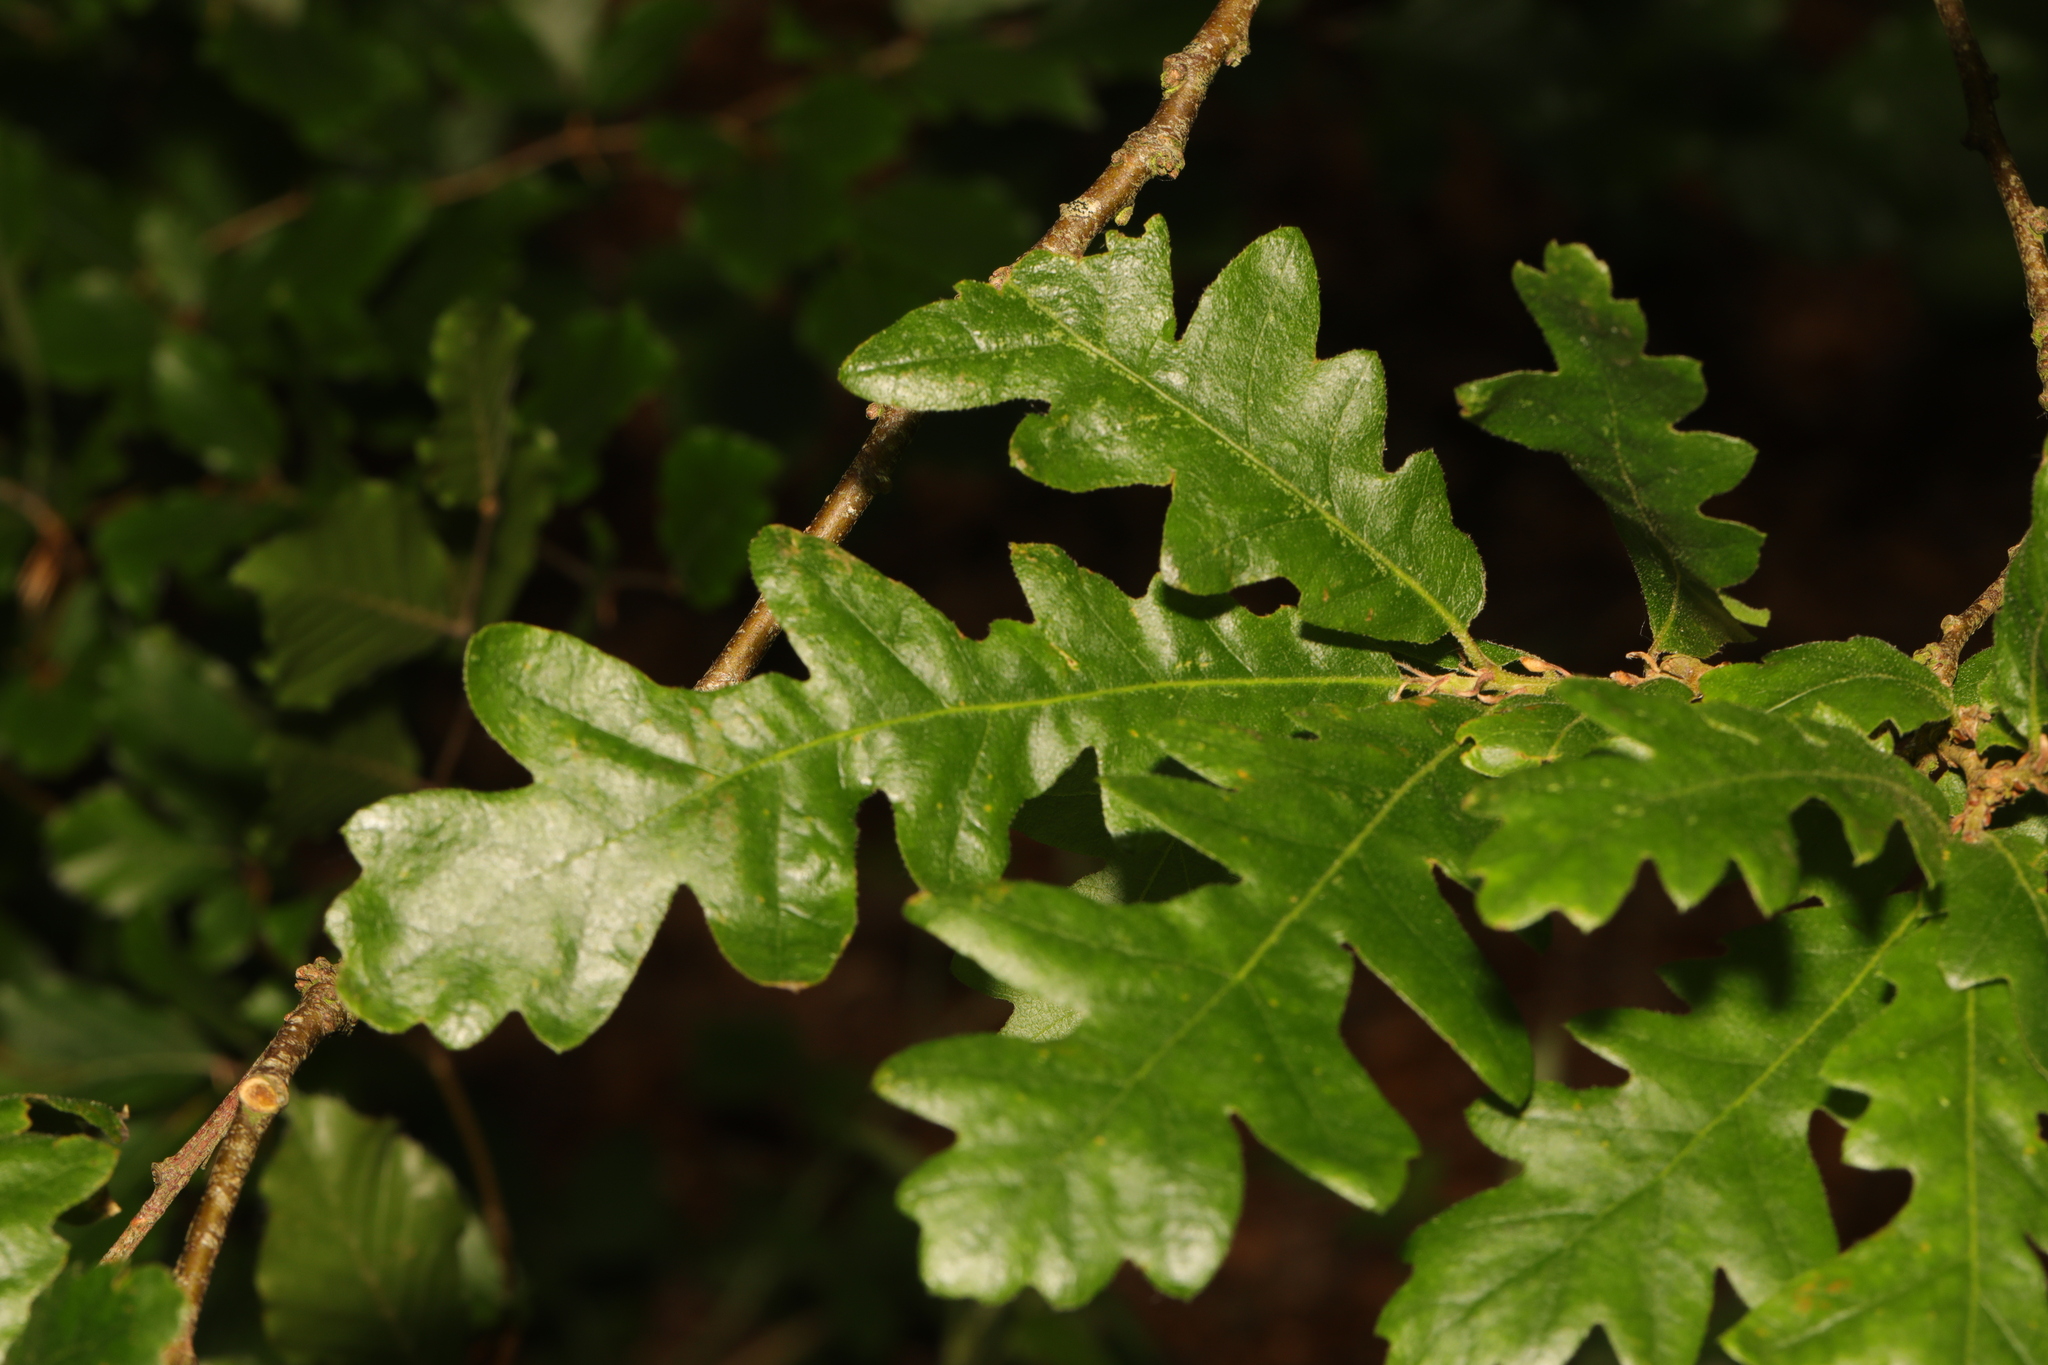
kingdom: Plantae
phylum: Tracheophyta
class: Magnoliopsida
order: Fagales
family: Fagaceae
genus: Quercus
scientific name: Quercus cerris
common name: Turkey oak
